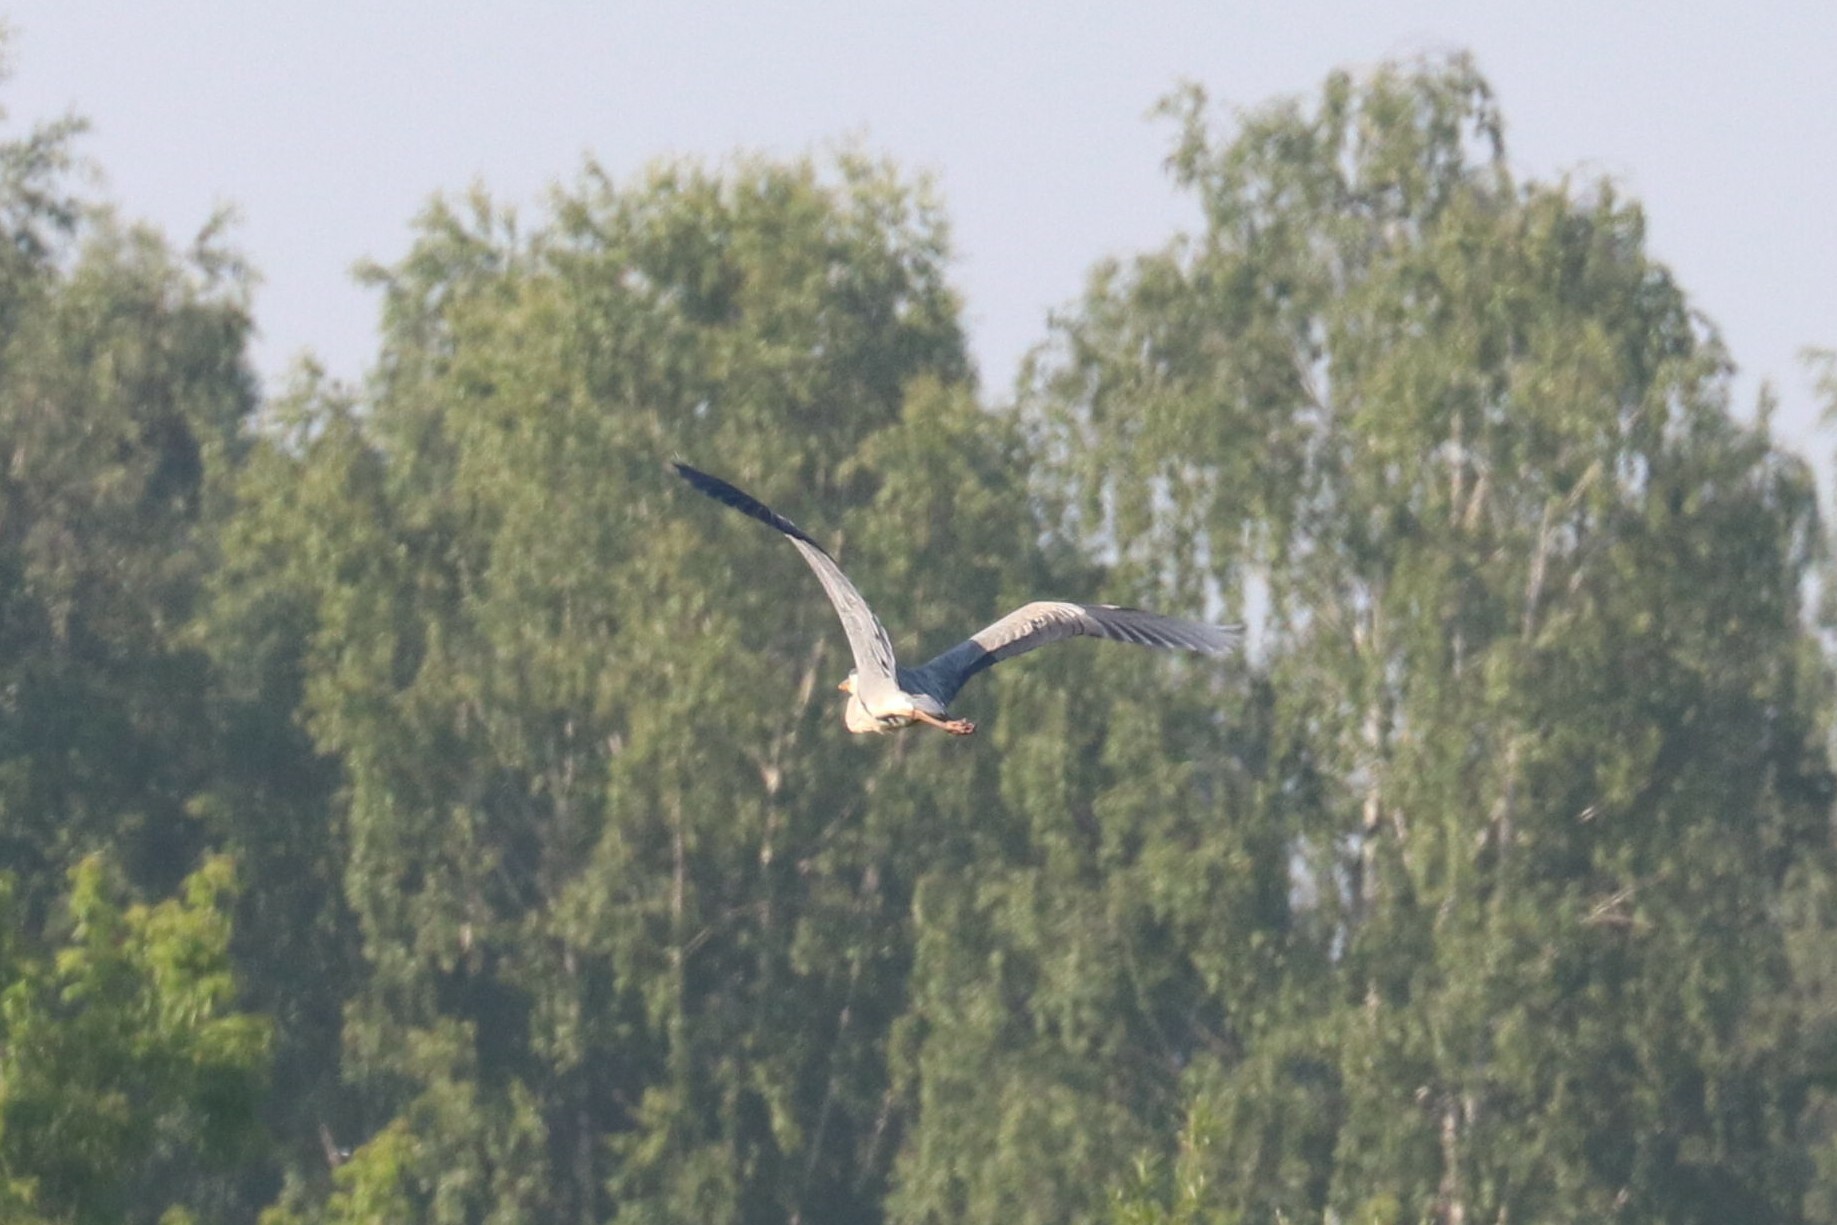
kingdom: Animalia
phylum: Chordata
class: Aves
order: Pelecaniformes
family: Ardeidae
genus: Ardea
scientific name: Ardea cinerea
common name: Grey heron
